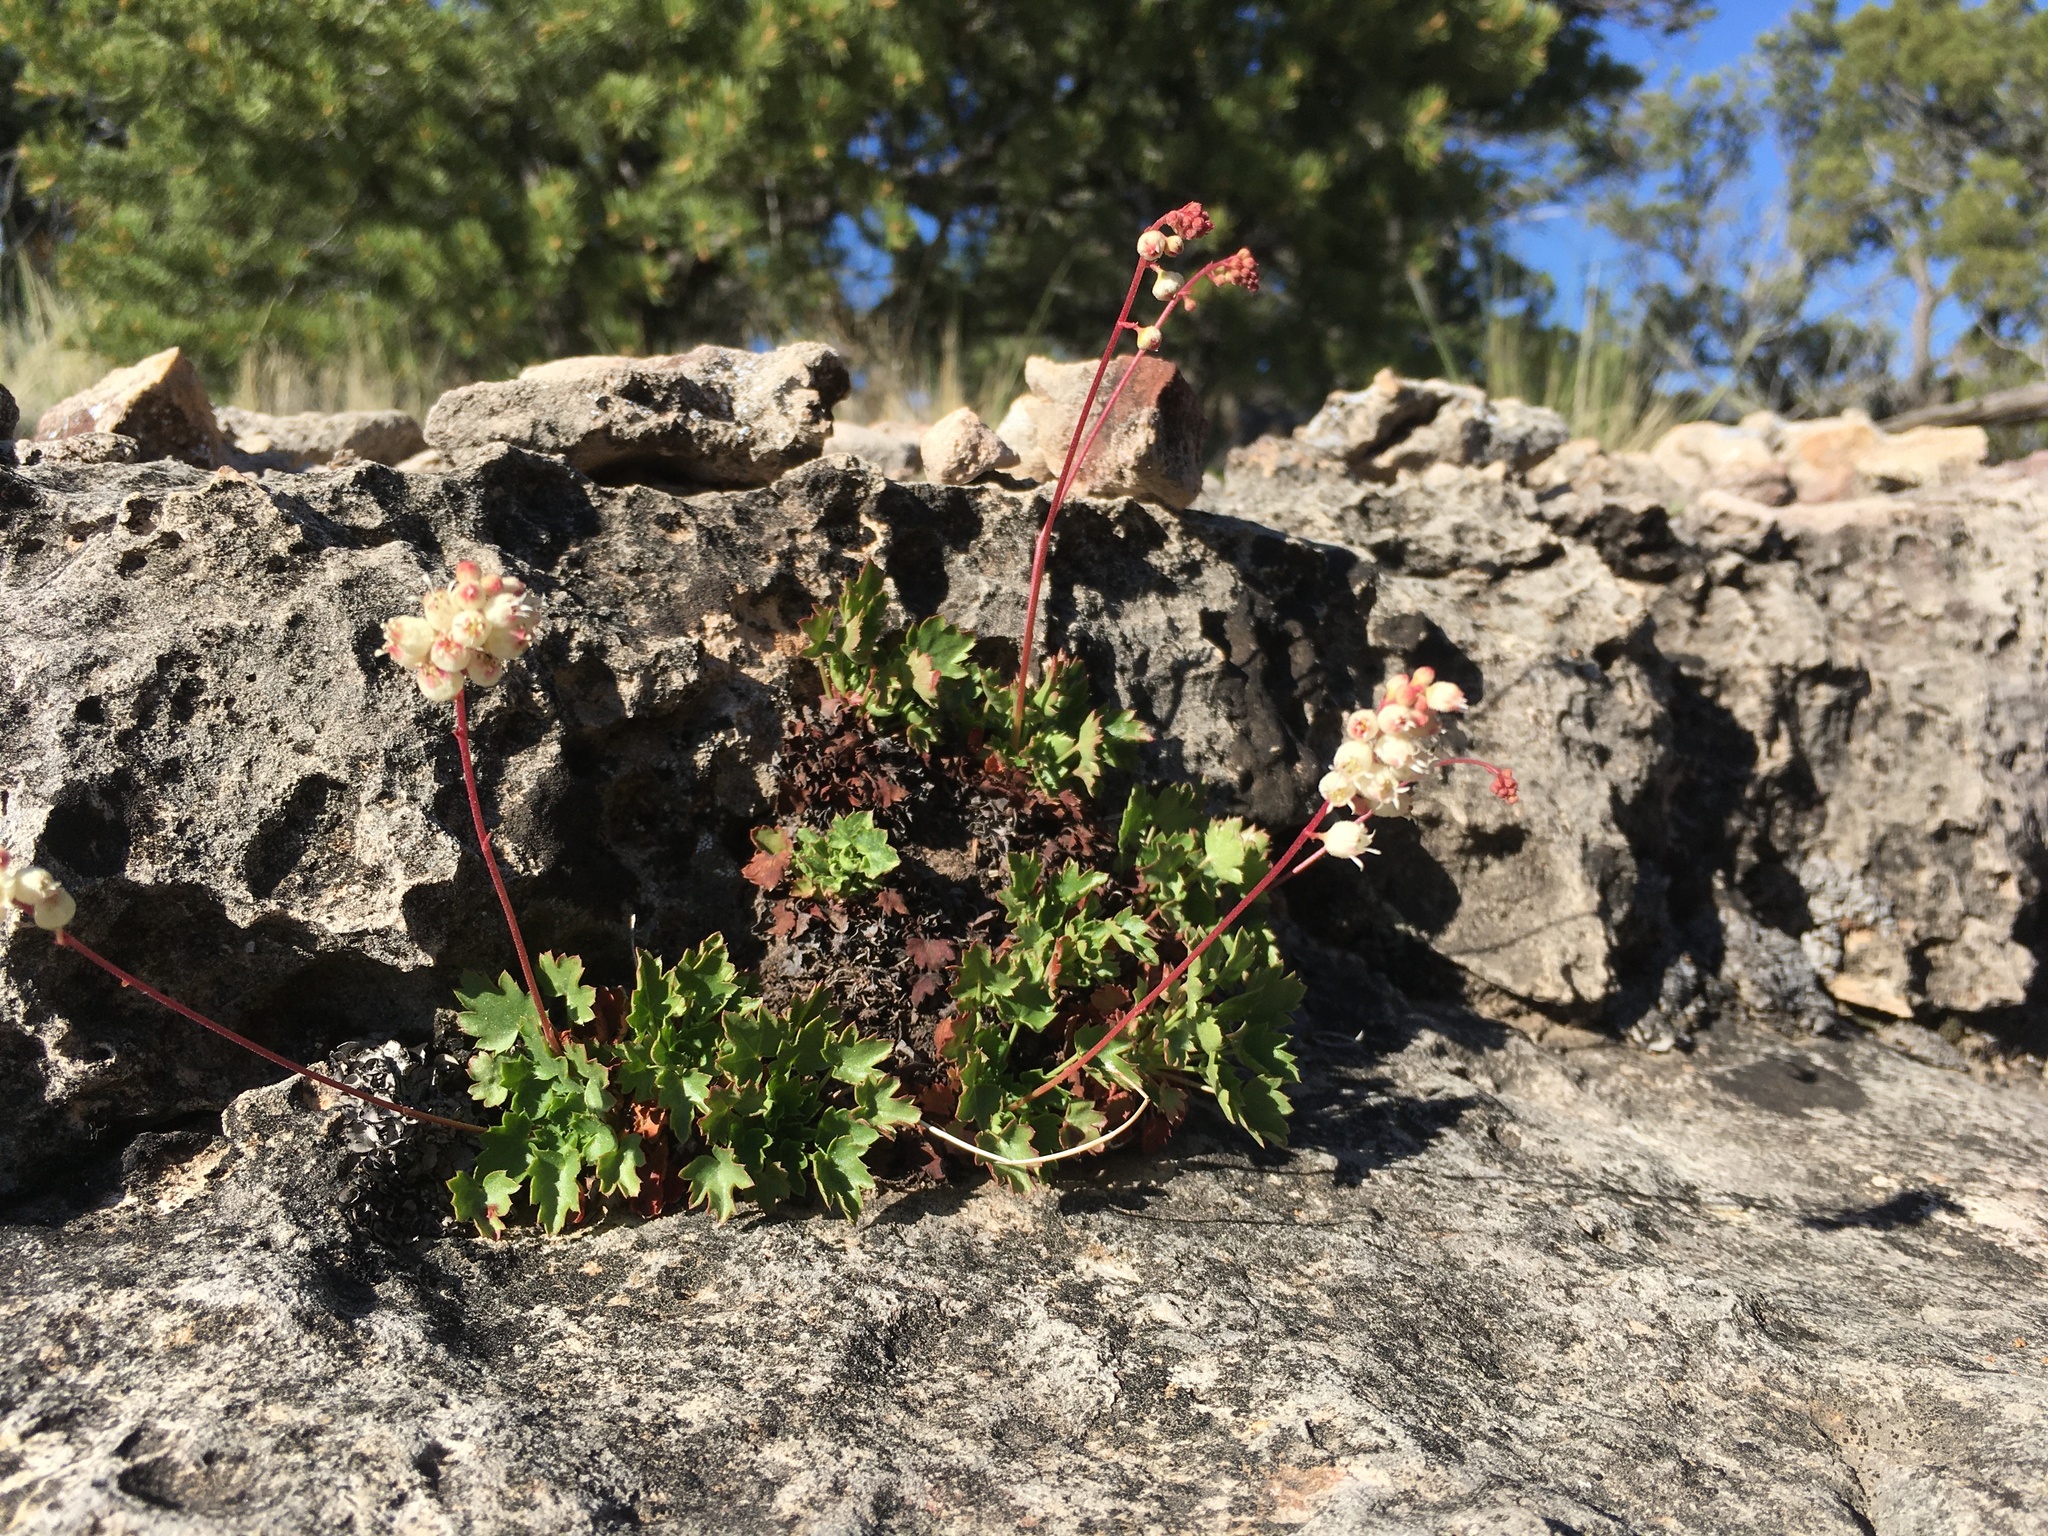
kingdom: Plantae
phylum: Tracheophyta
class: Magnoliopsida
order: Saxifragales
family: Saxifragaceae
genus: Heuchera
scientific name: Heuchera hallii
